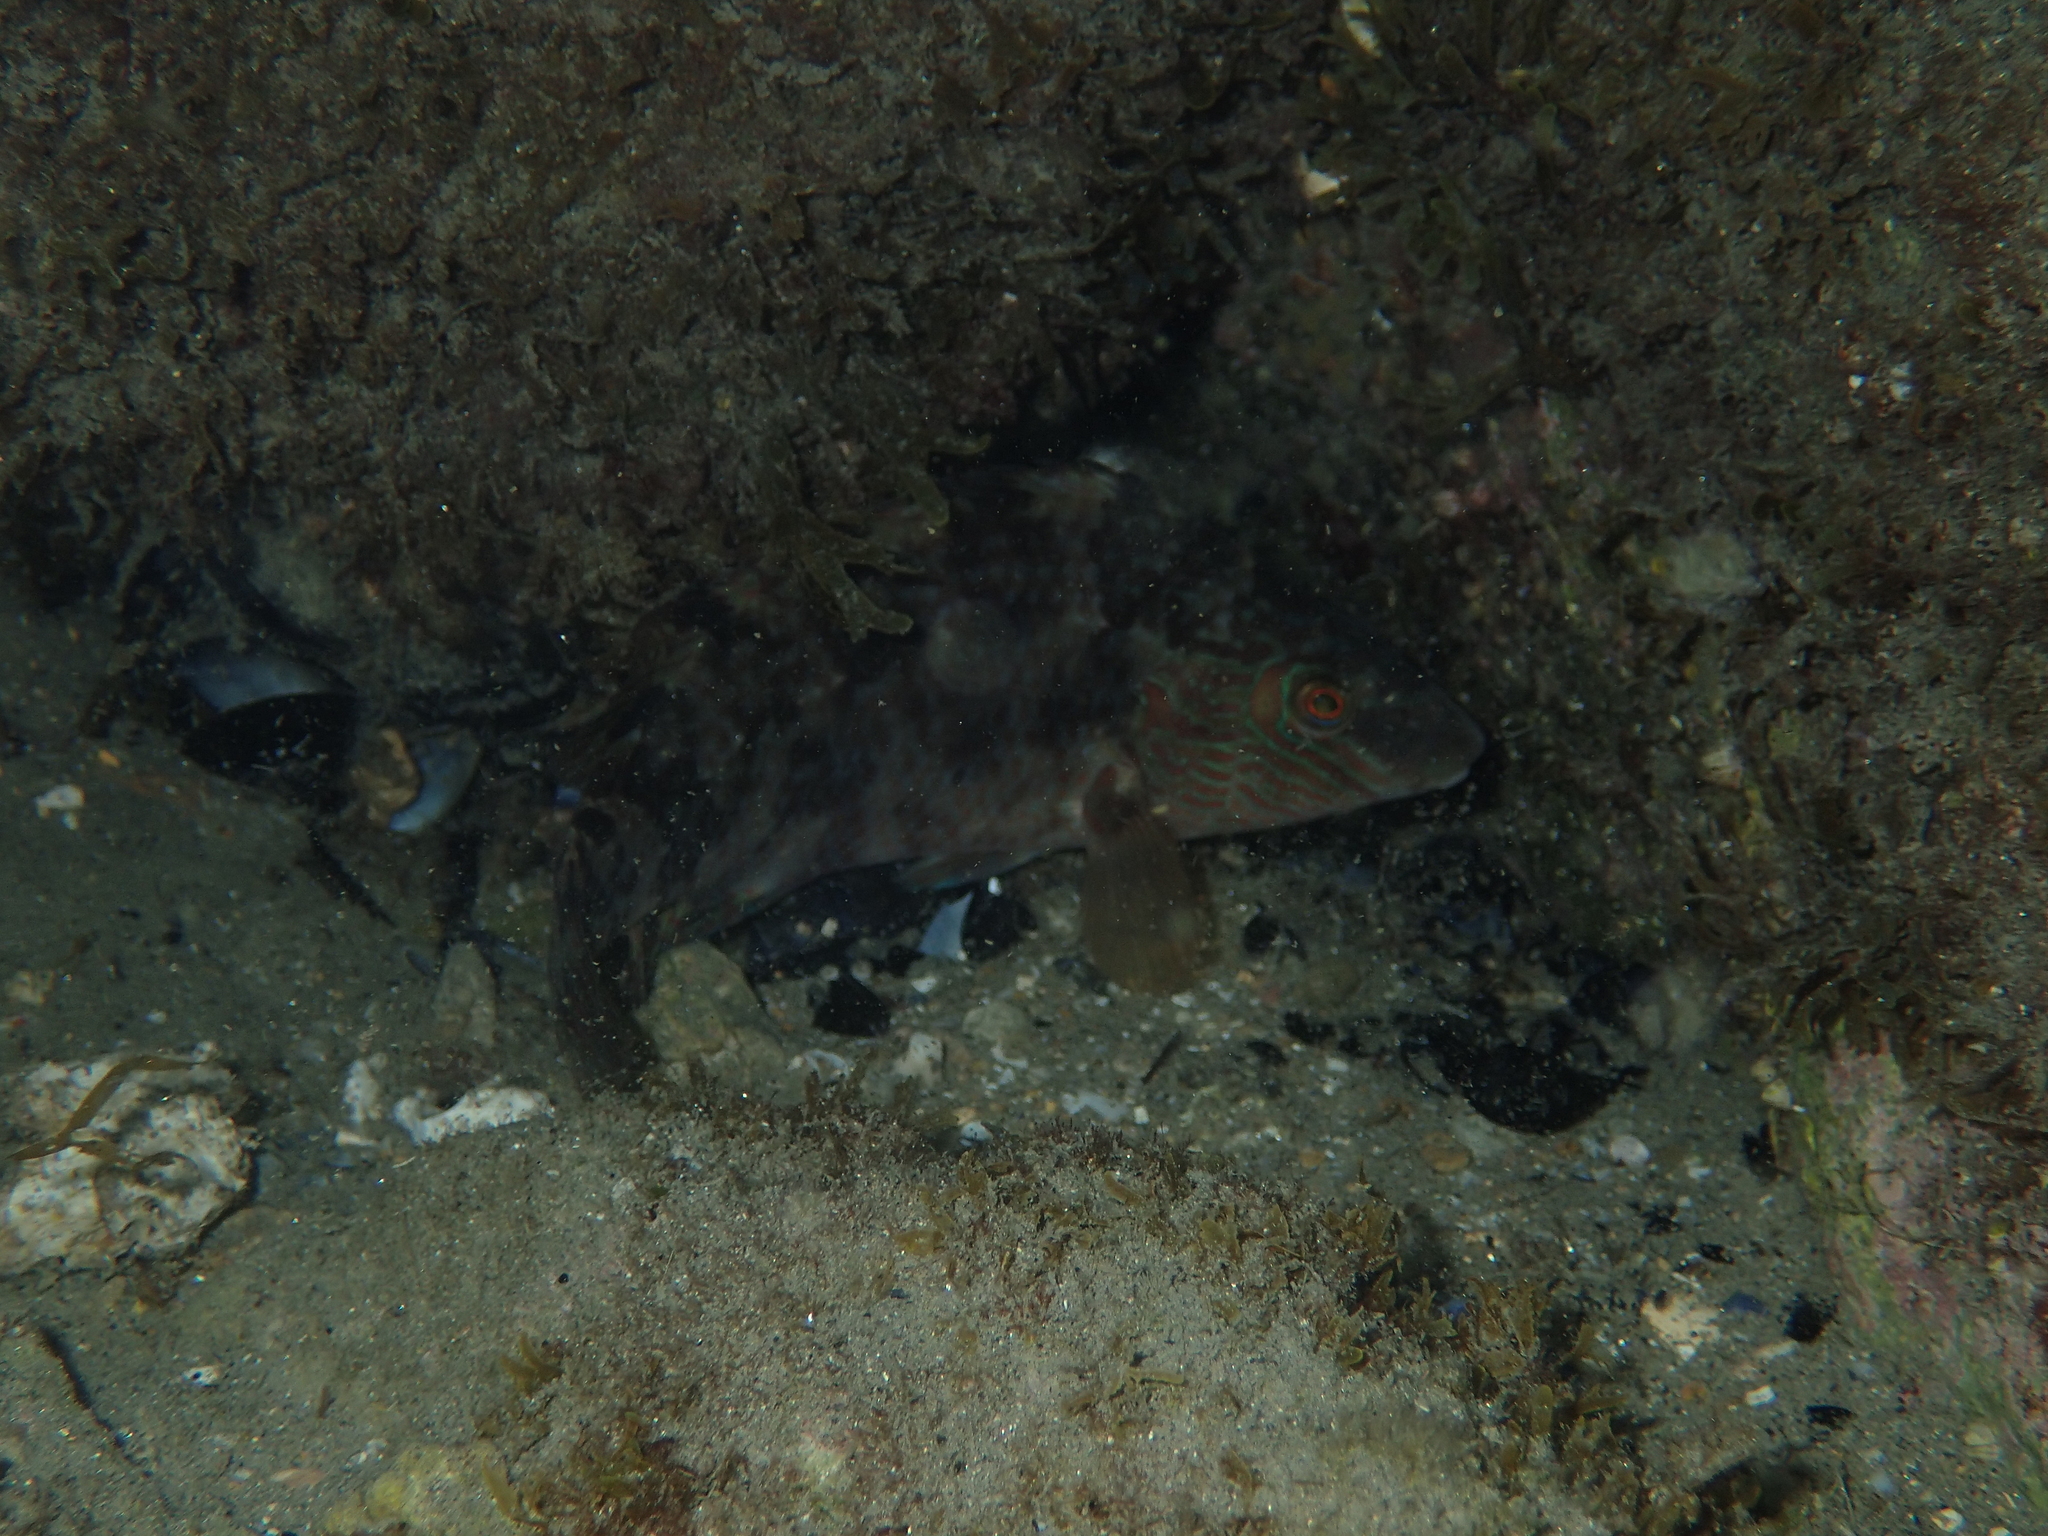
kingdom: Animalia
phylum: Chordata
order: Perciformes
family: Labridae
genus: Symphodus
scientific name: Symphodus melops
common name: Corkwing
